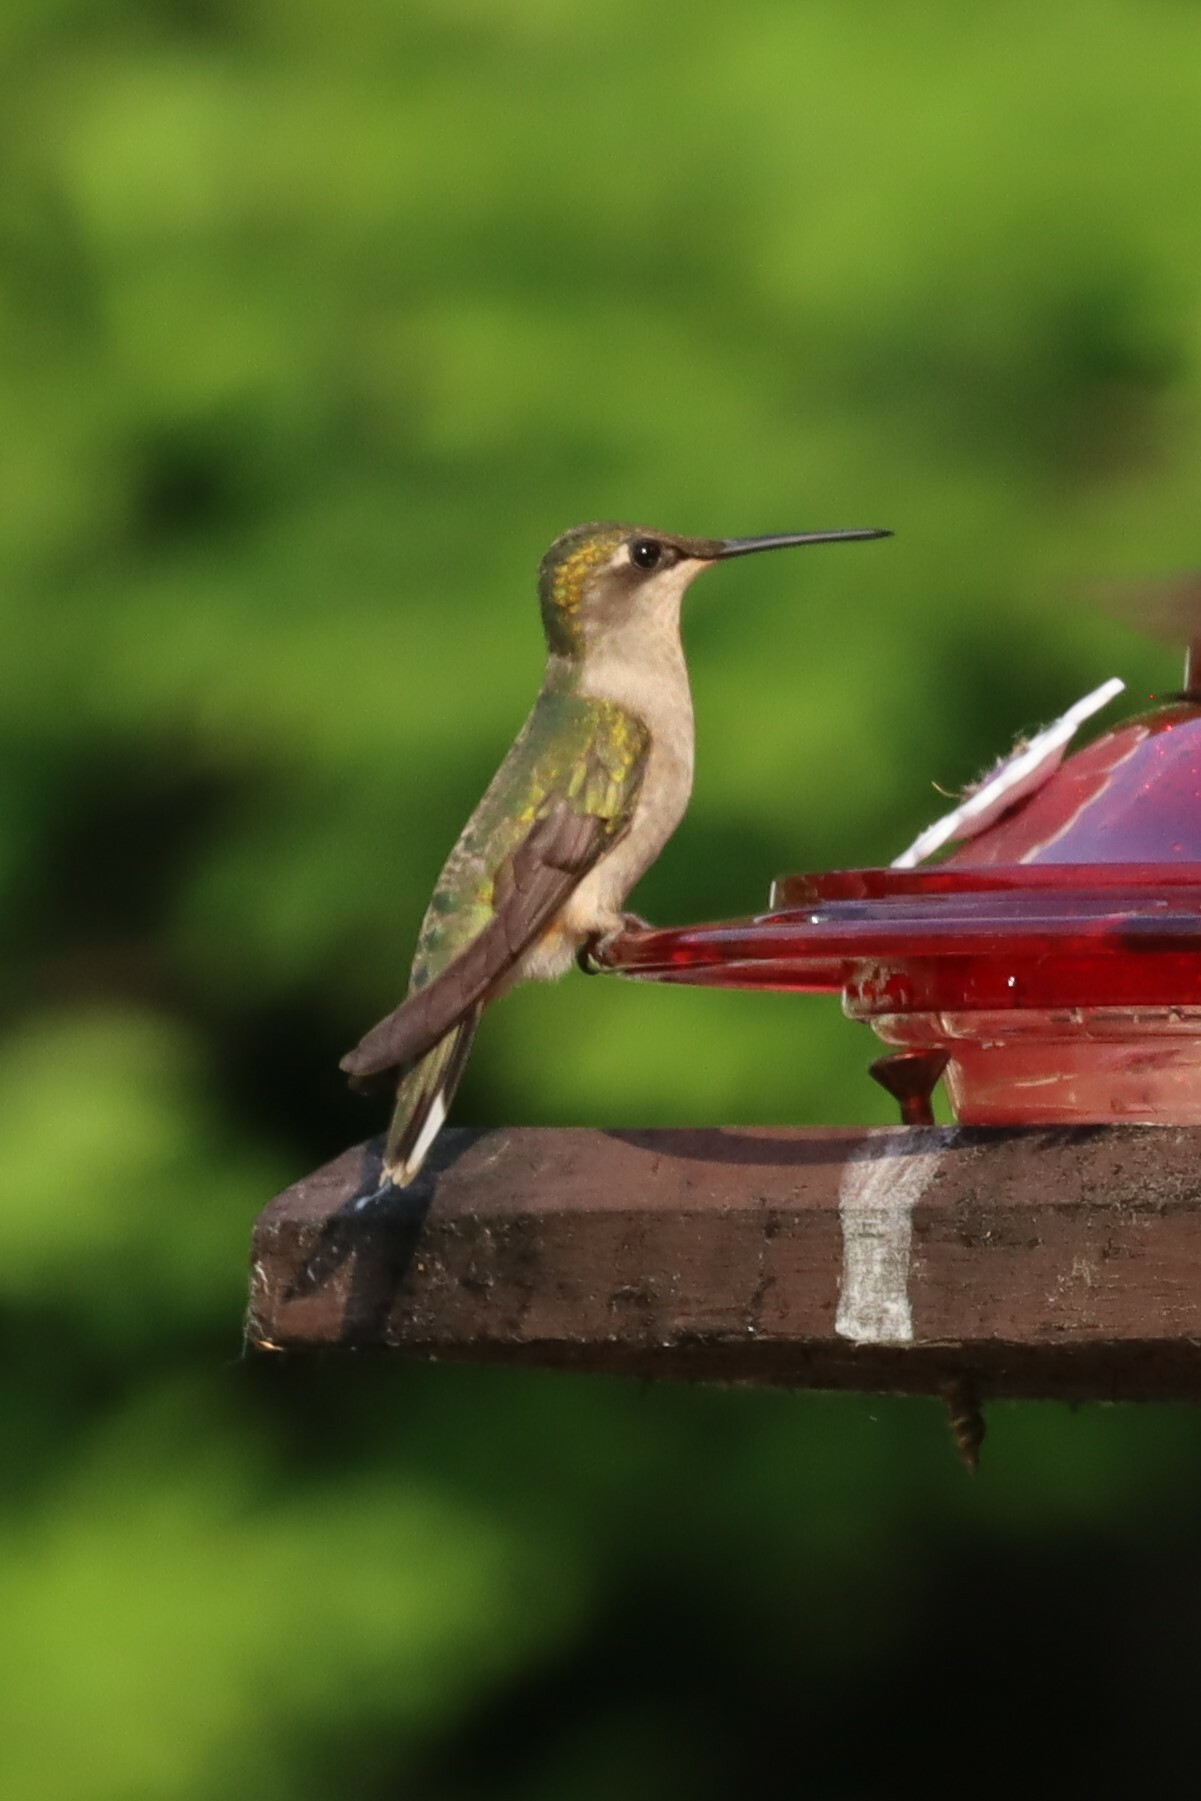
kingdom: Animalia
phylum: Chordata
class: Aves
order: Apodiformes
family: Trochilidae
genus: Archilochus
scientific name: Archilochus colubris
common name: Ruby-throated hummingbird
